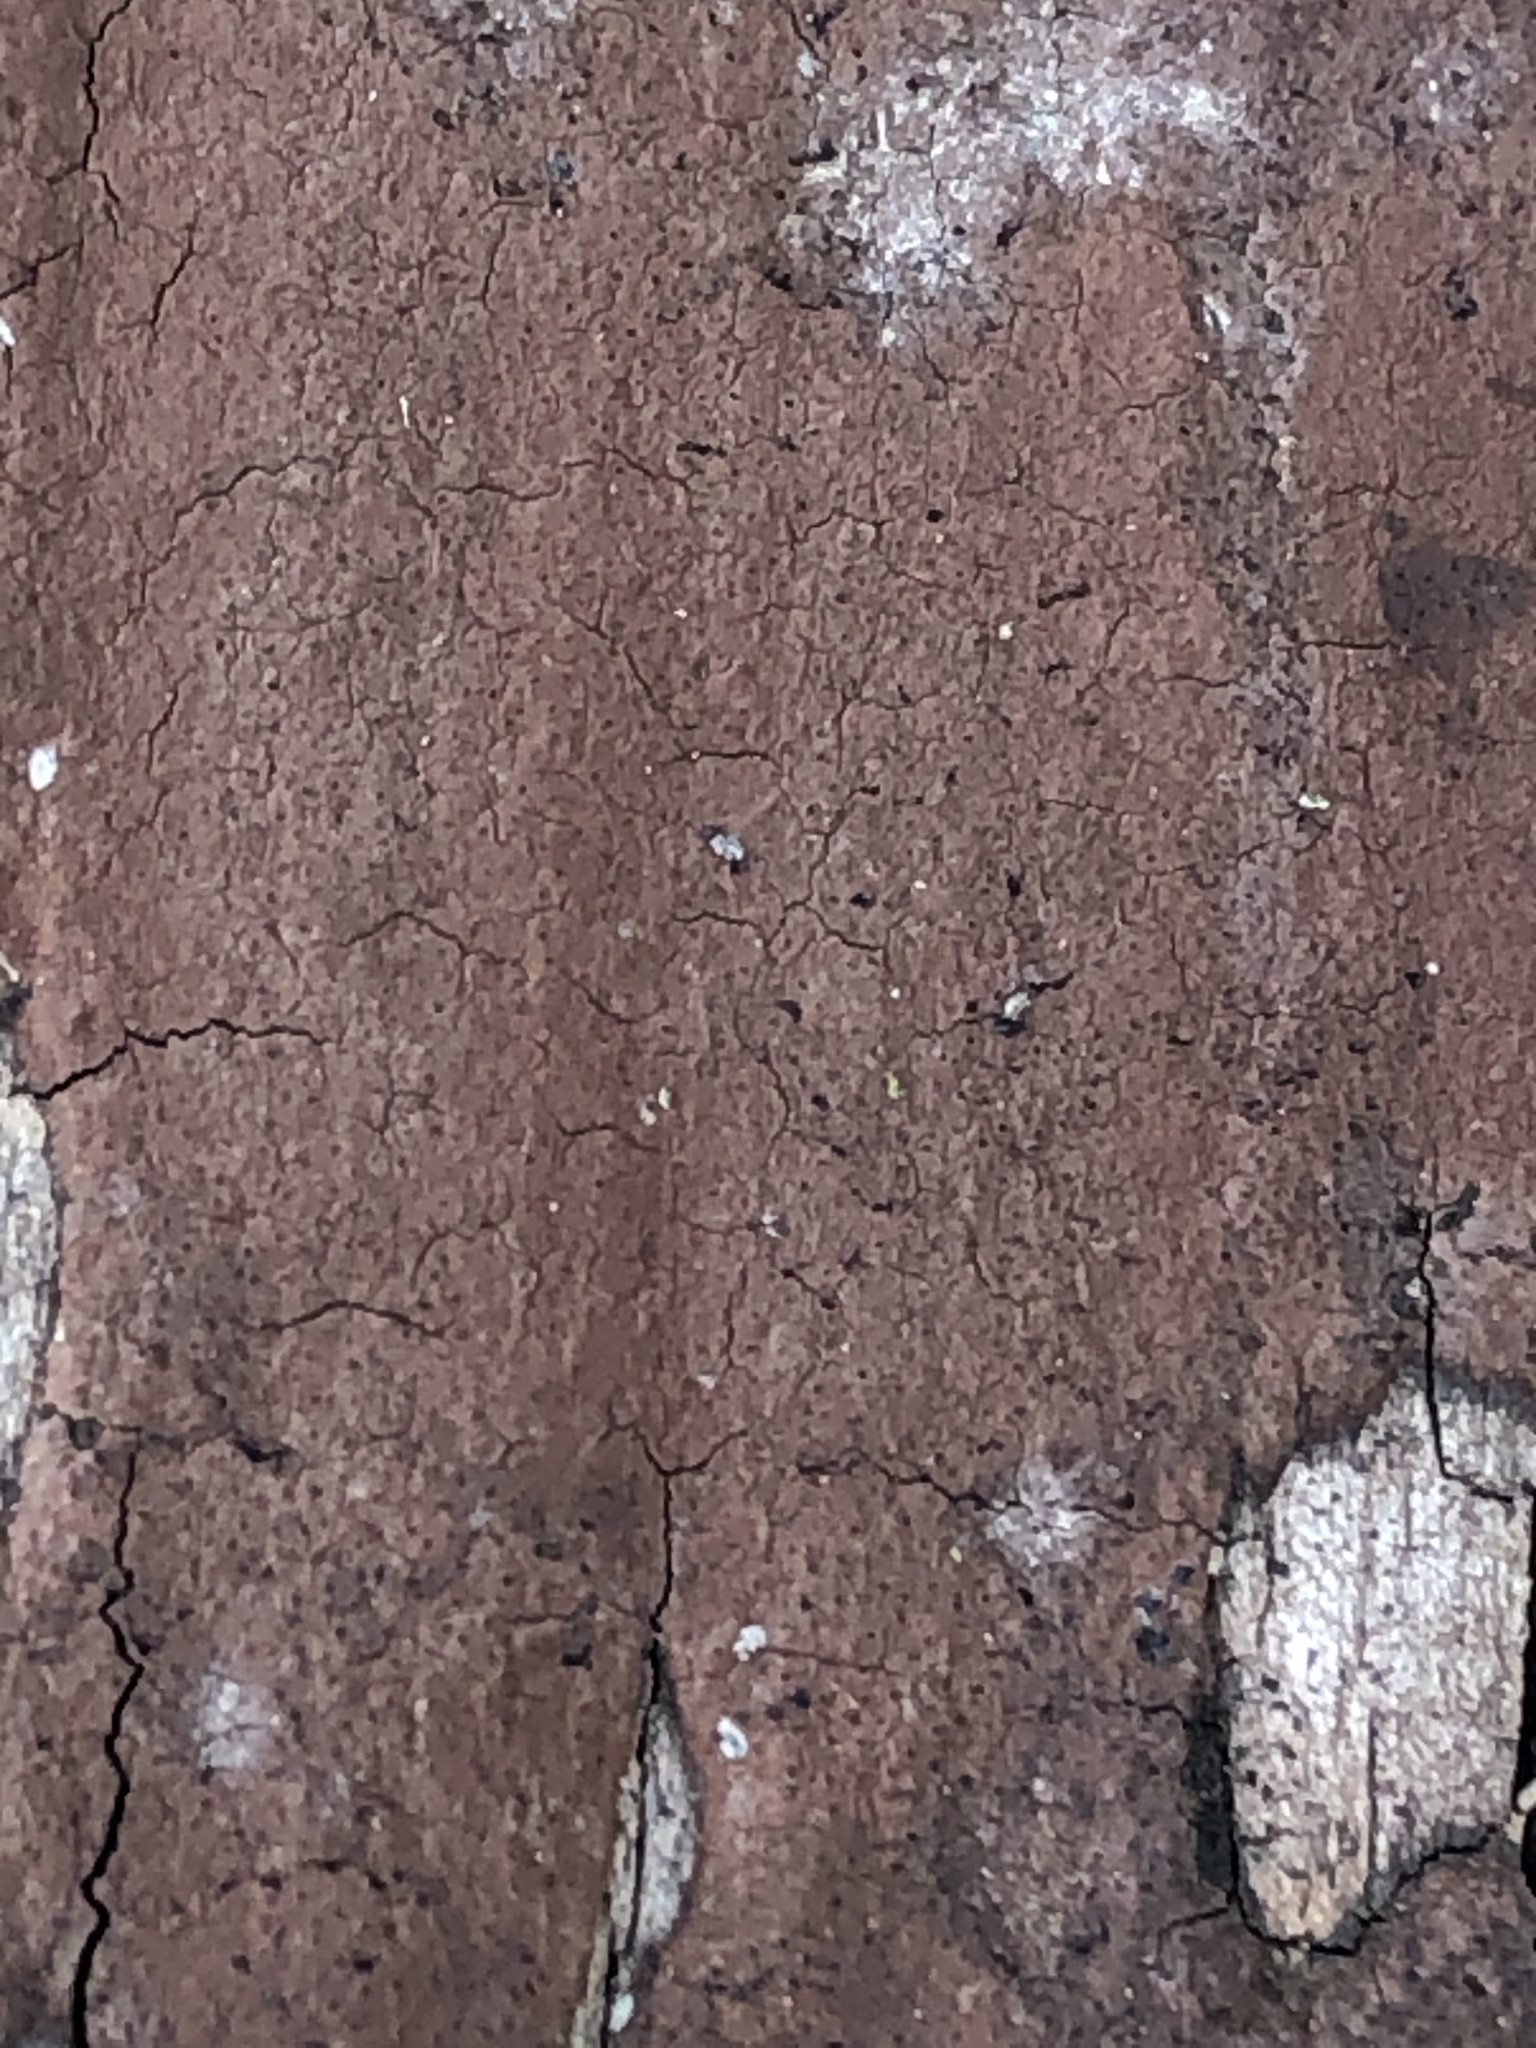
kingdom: Fungi
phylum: Ascomycota
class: Sordariomycetes
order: Xylariales
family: Diatrypaceae
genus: Diatrype
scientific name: Diatrype stigma
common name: Common tarcrust
